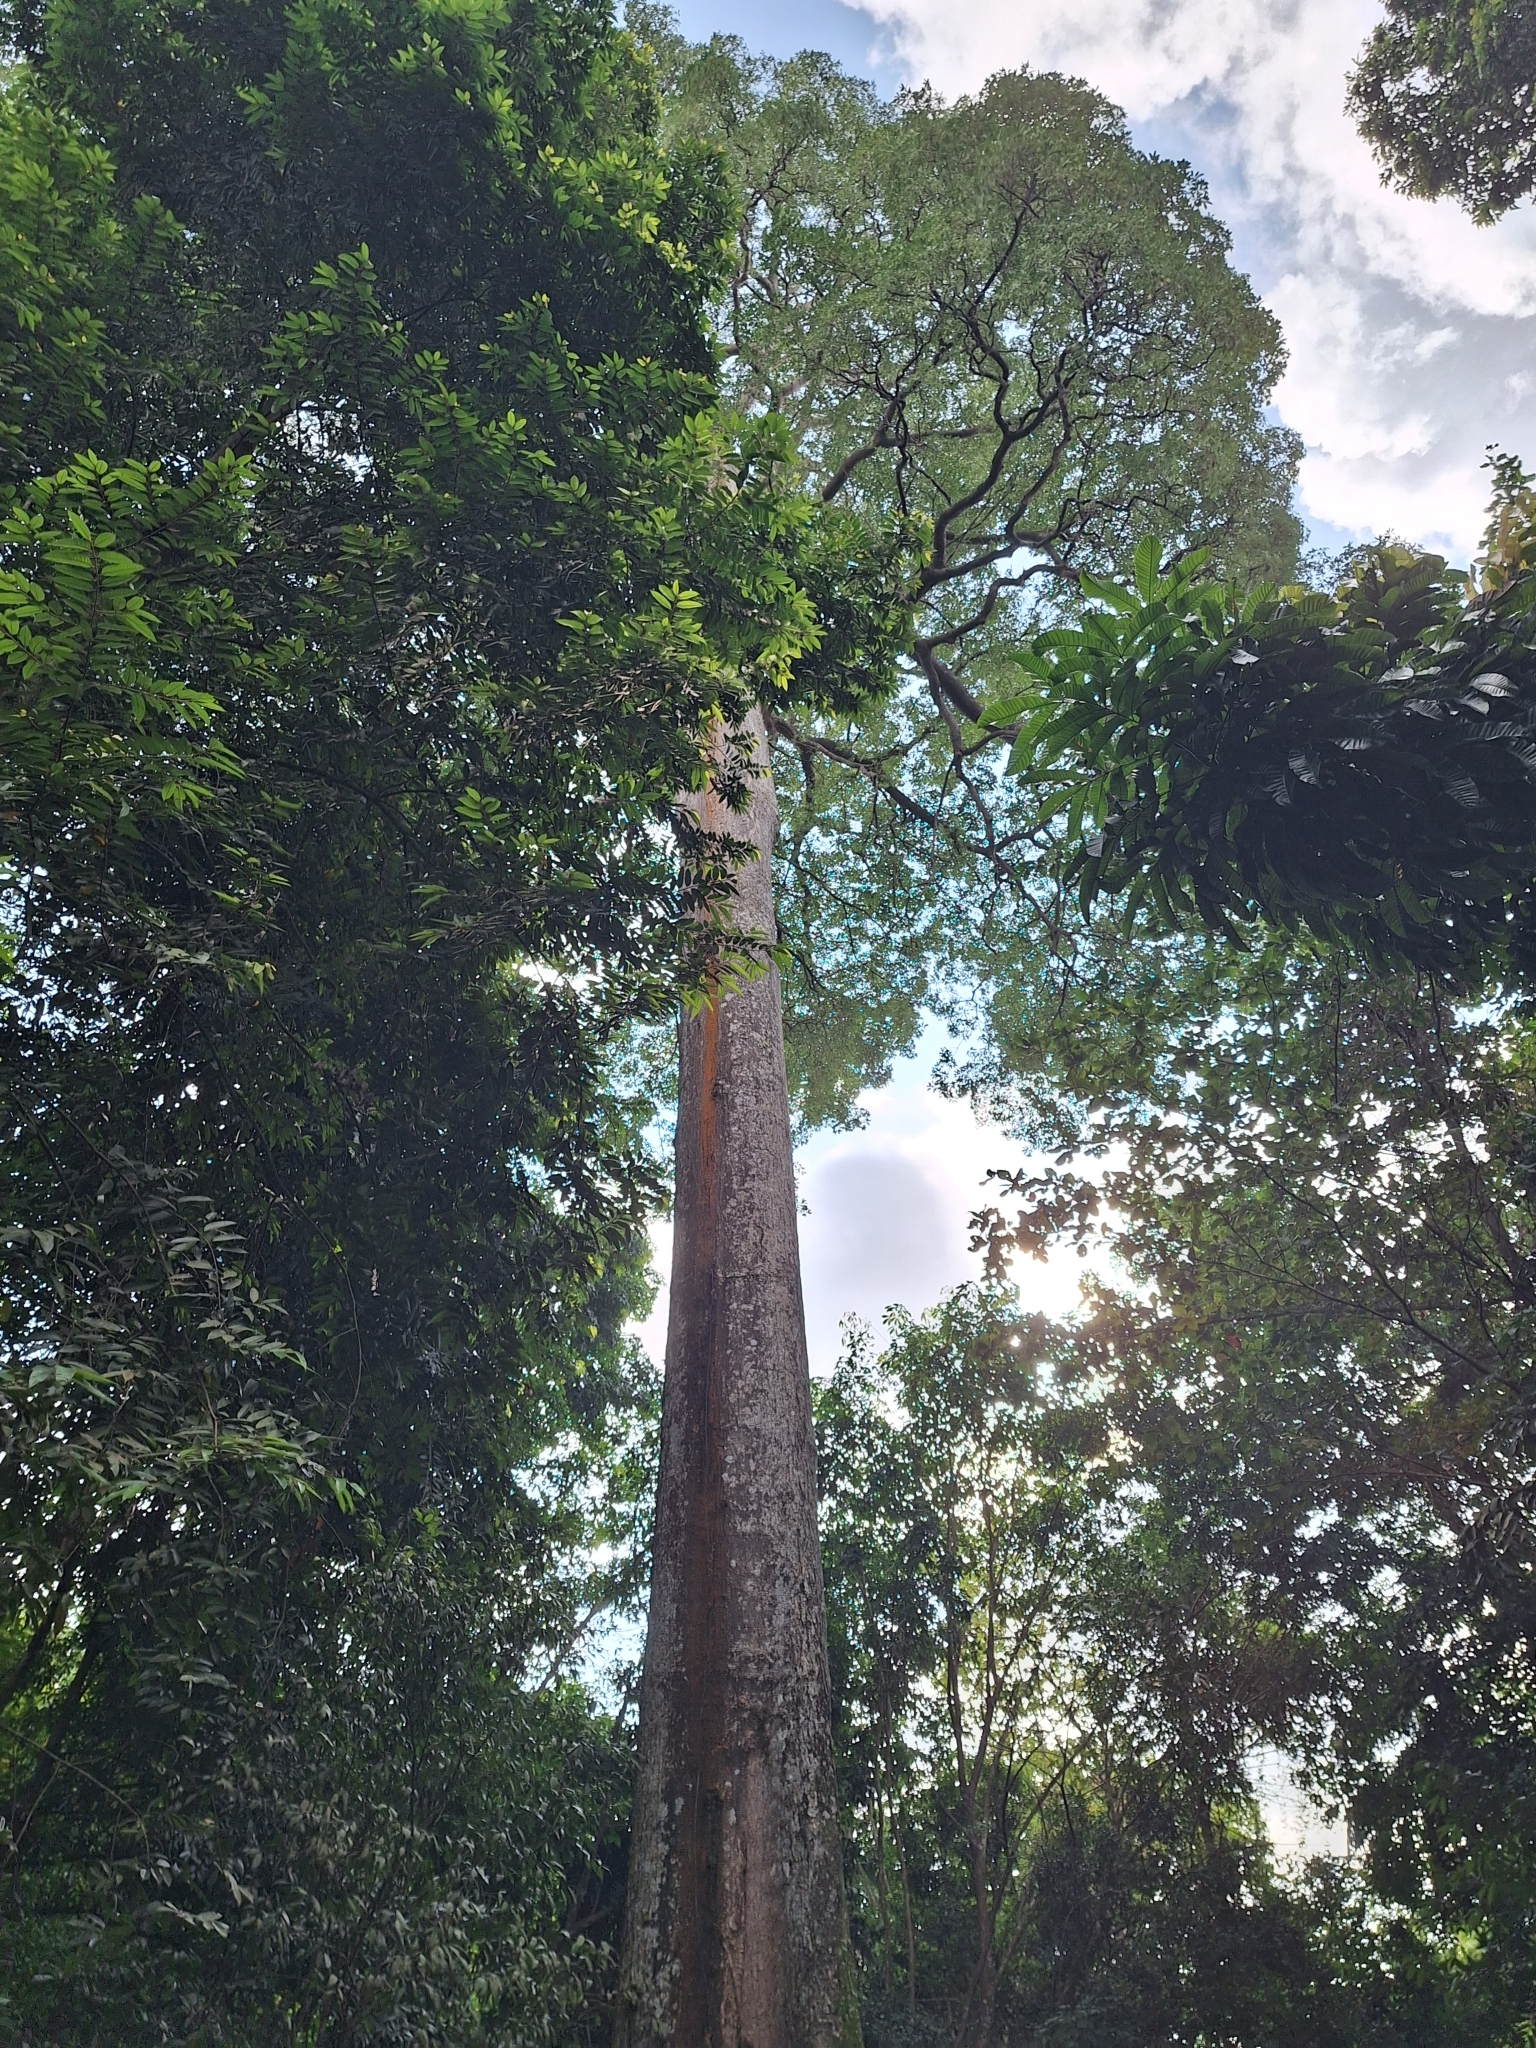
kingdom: Plantae
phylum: Tracheophyta
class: Magnoliopsida
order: Gentianales
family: Apocynaceae
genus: Alstonia
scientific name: Alstonia angustiloba
